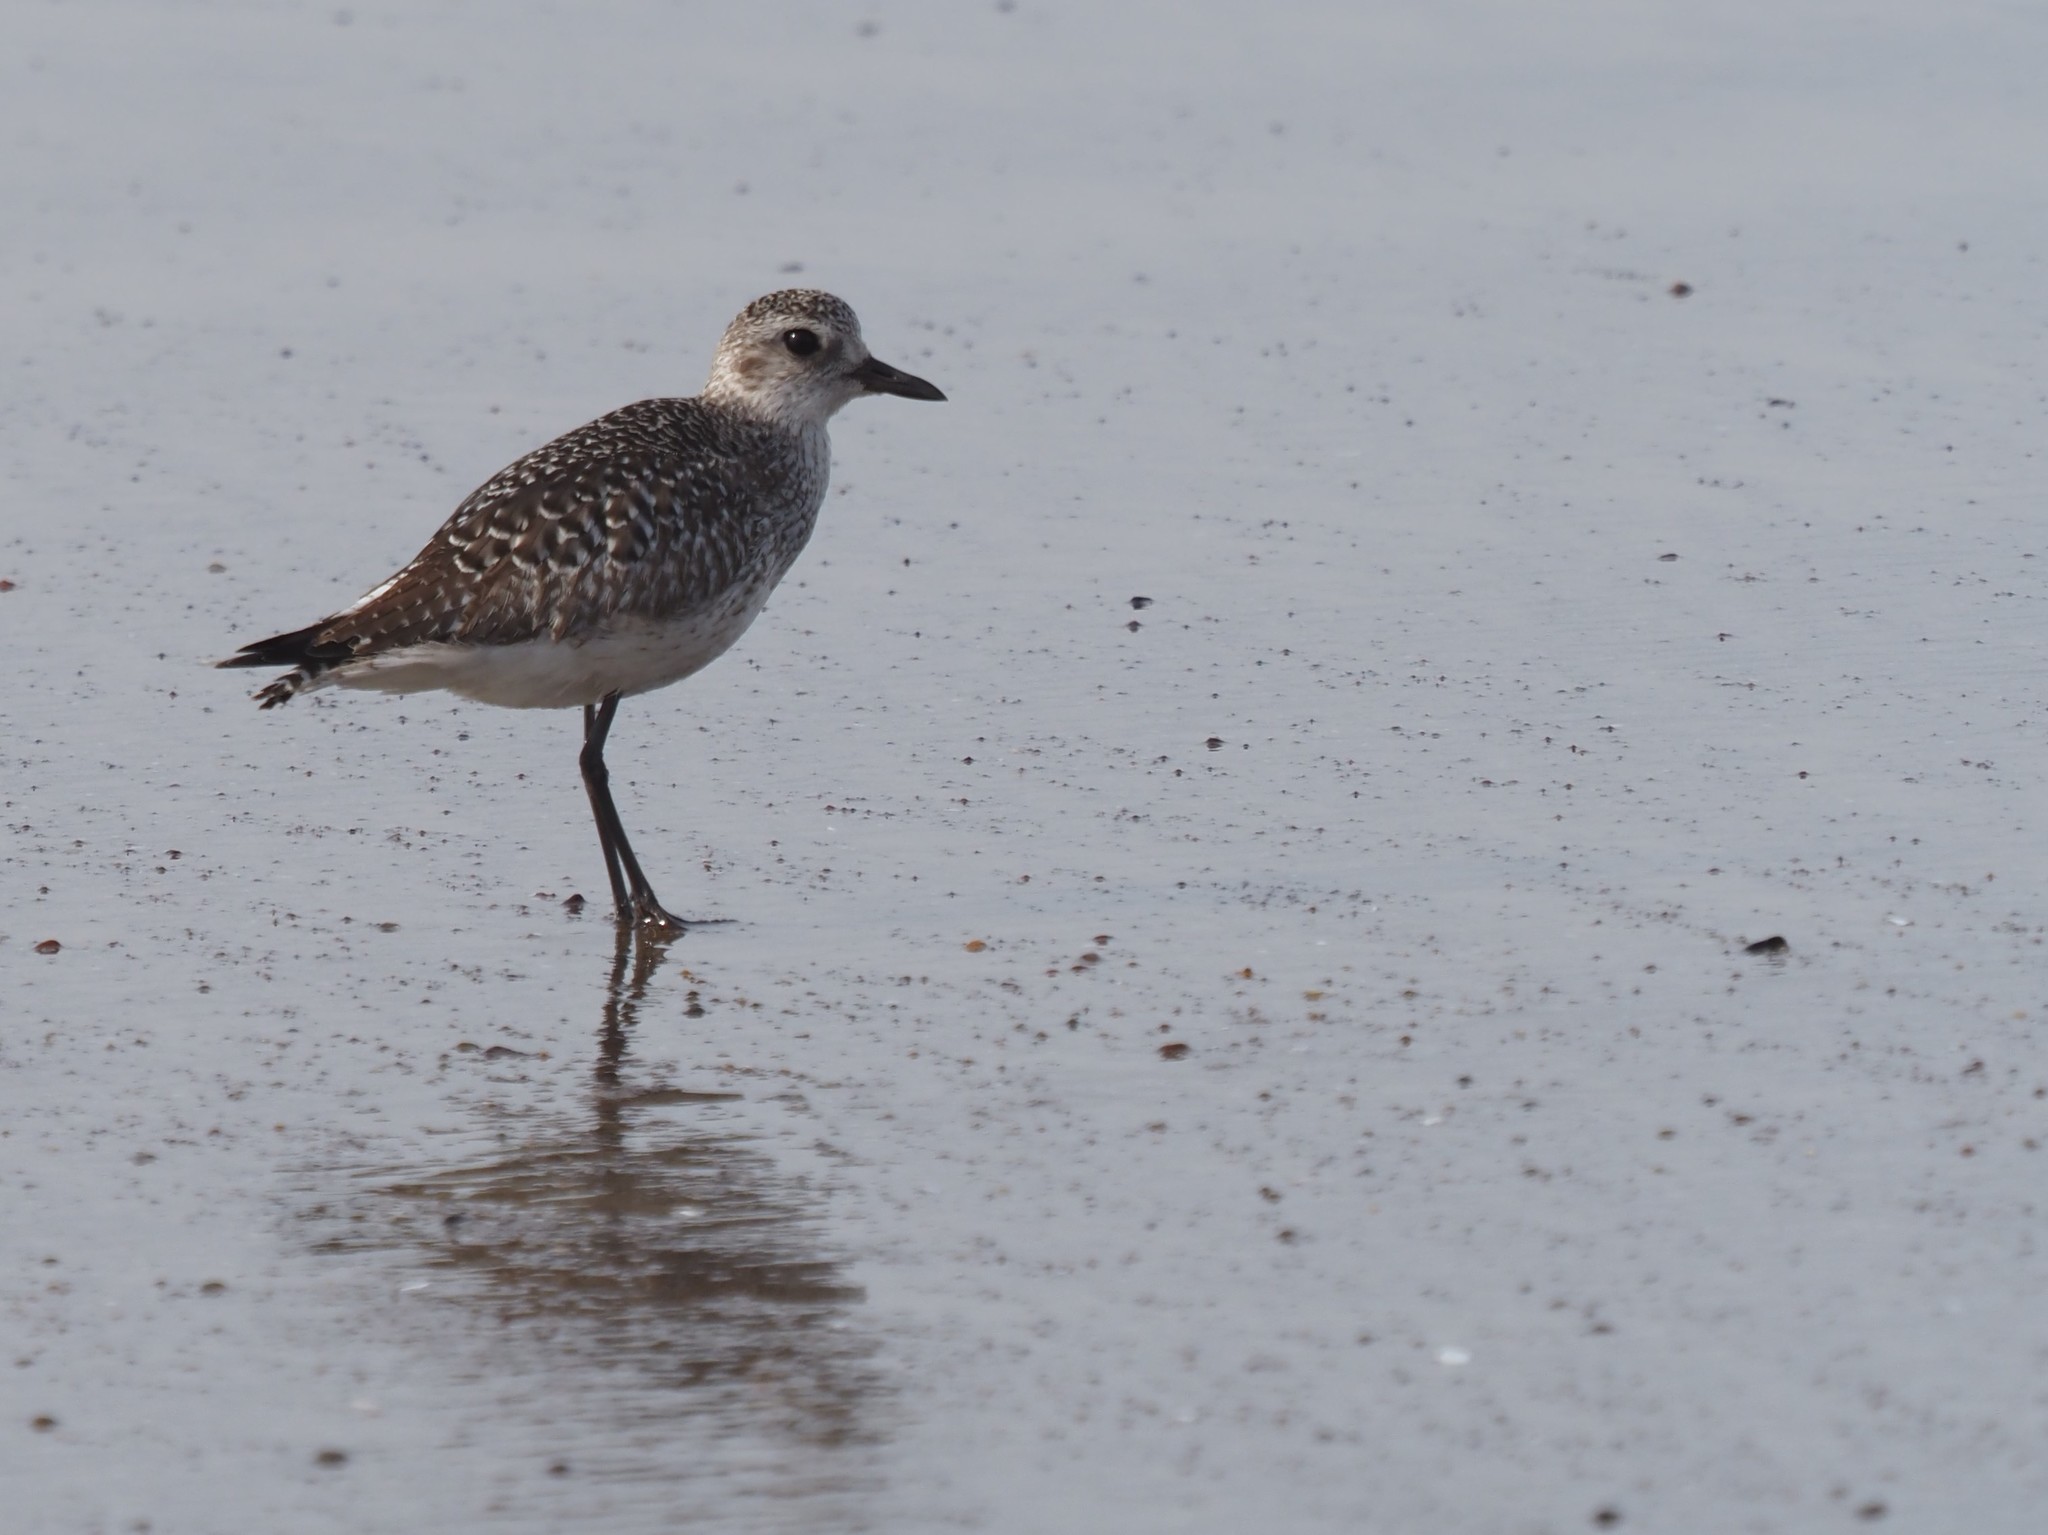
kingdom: Animalia
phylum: Chordata
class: Aves
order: Charadriiformes
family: Charadriidae
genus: Pluvialis
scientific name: Pluvialis squatarola
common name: Grey plover
